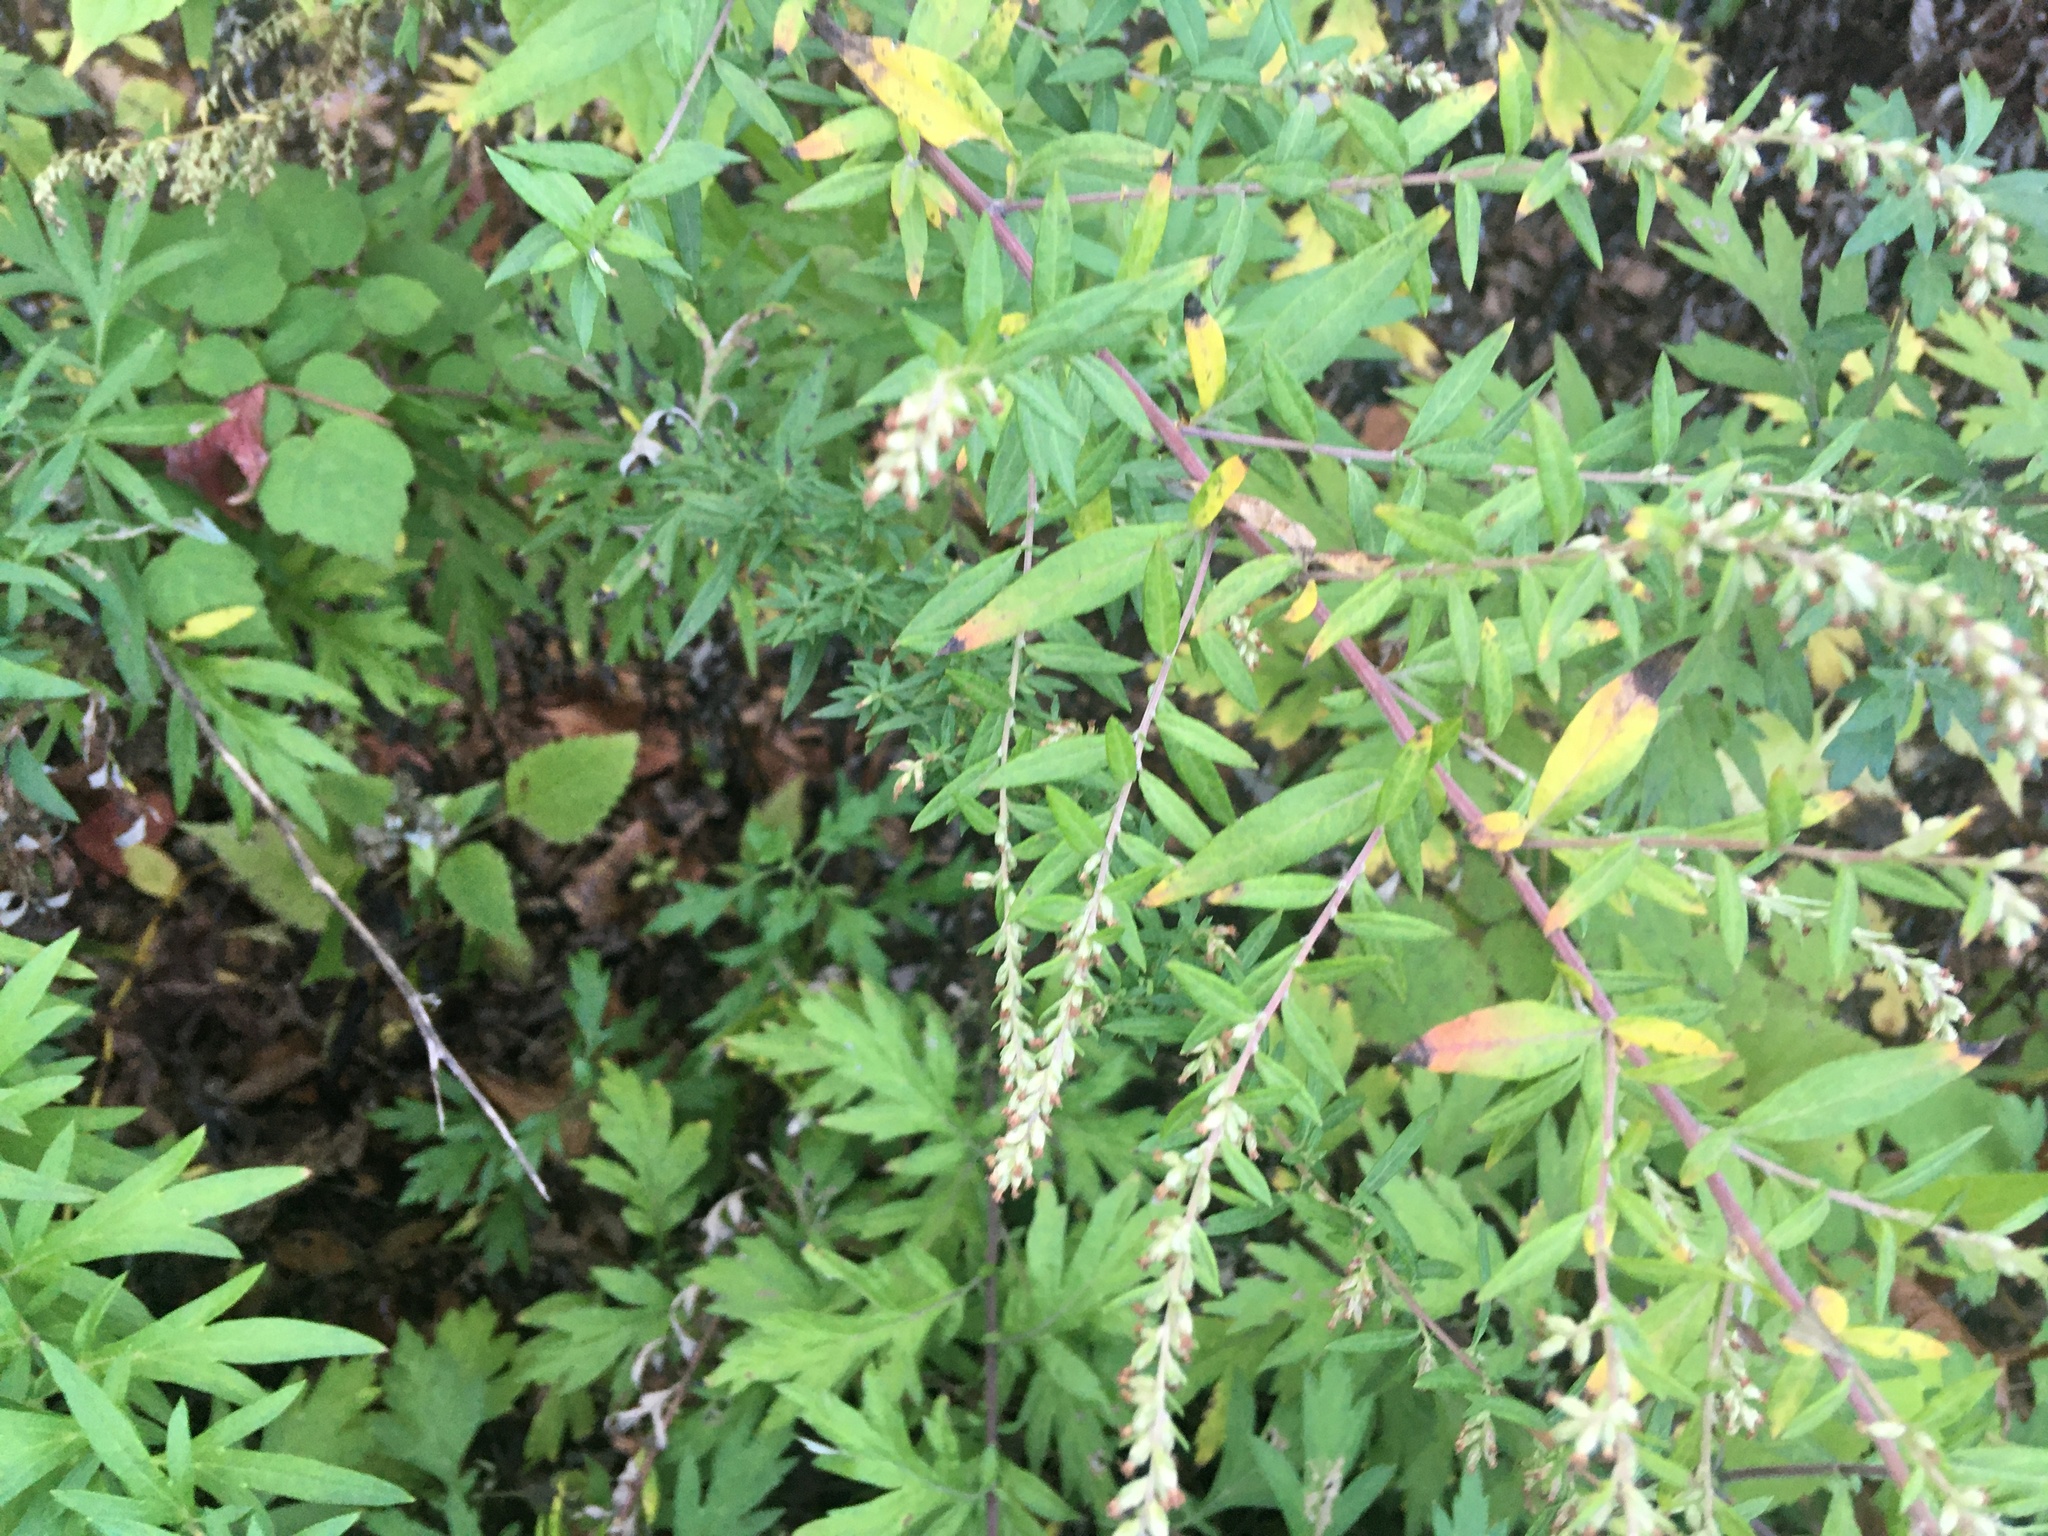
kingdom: Plantae
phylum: Tracheophyta
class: Magnoliopsida
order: Asterales
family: Asteraceae
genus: Artemisia
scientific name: Artemisia vulgaris
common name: Mugwort
